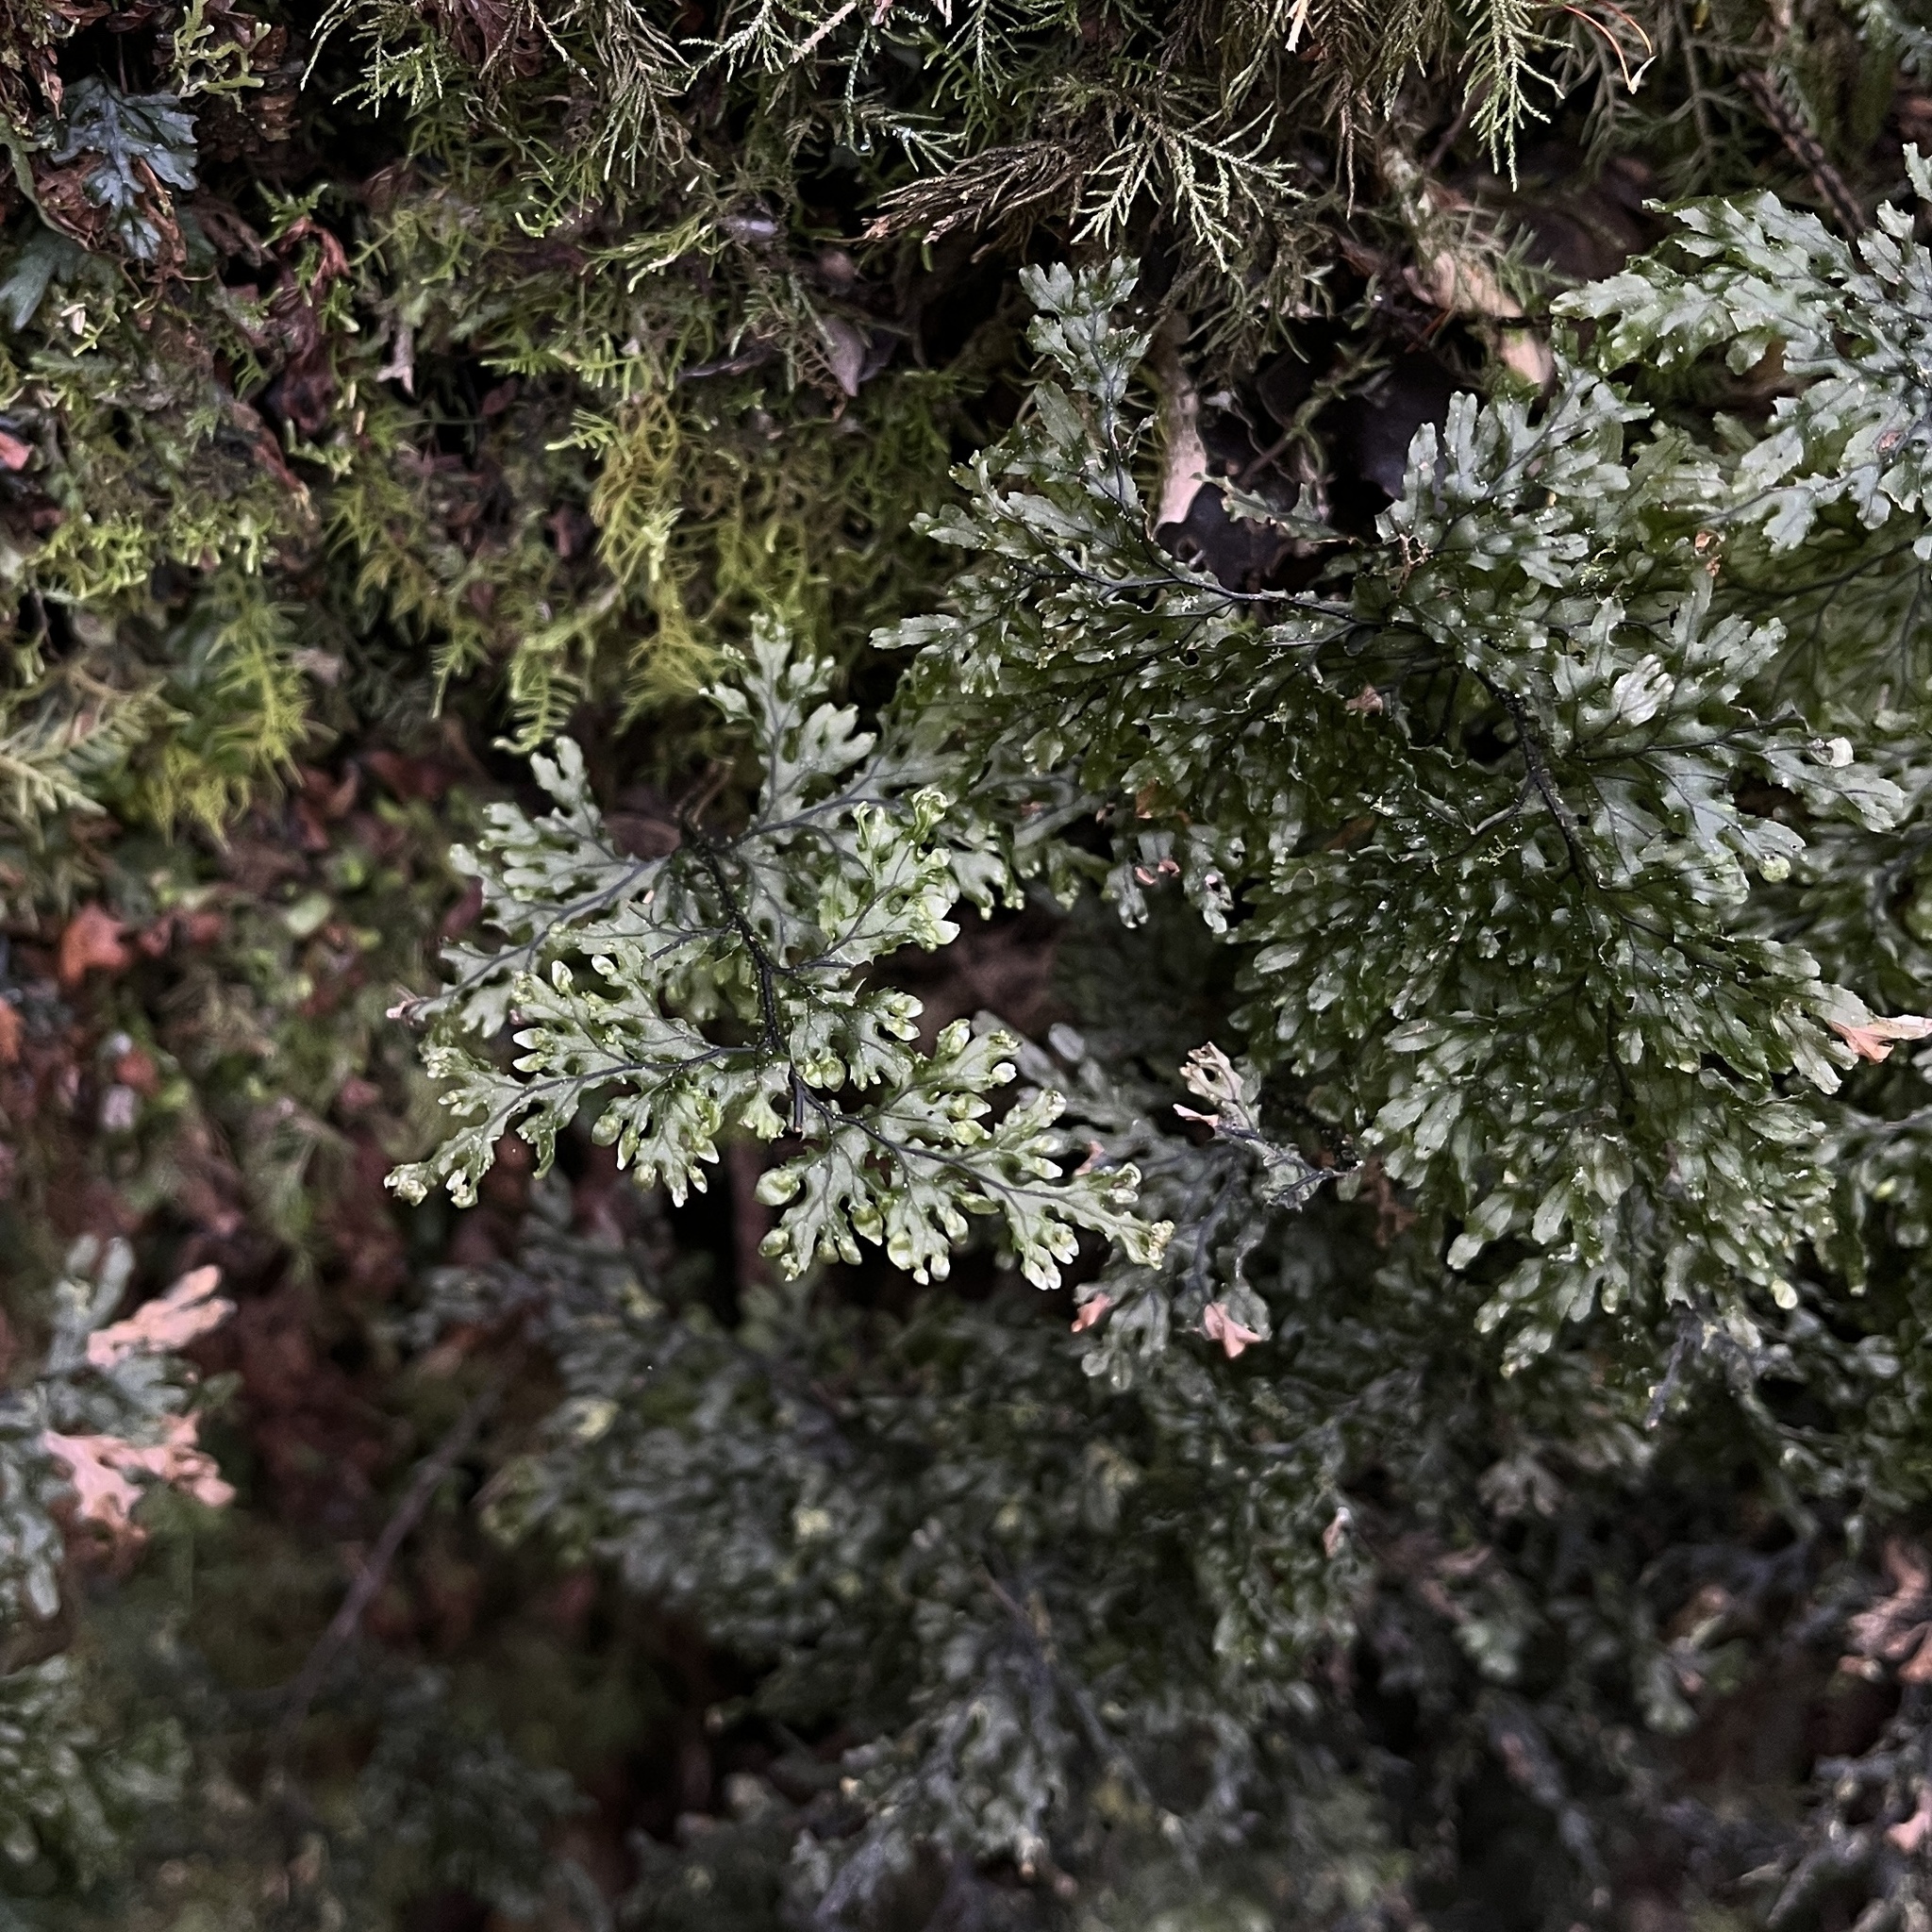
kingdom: Plantae
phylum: Tracheophyta
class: Polypodiopsida
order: Hymenophyllales
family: Hymenophyllaceae
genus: Hymenophyllum
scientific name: Hymenophyllum krauseanum
